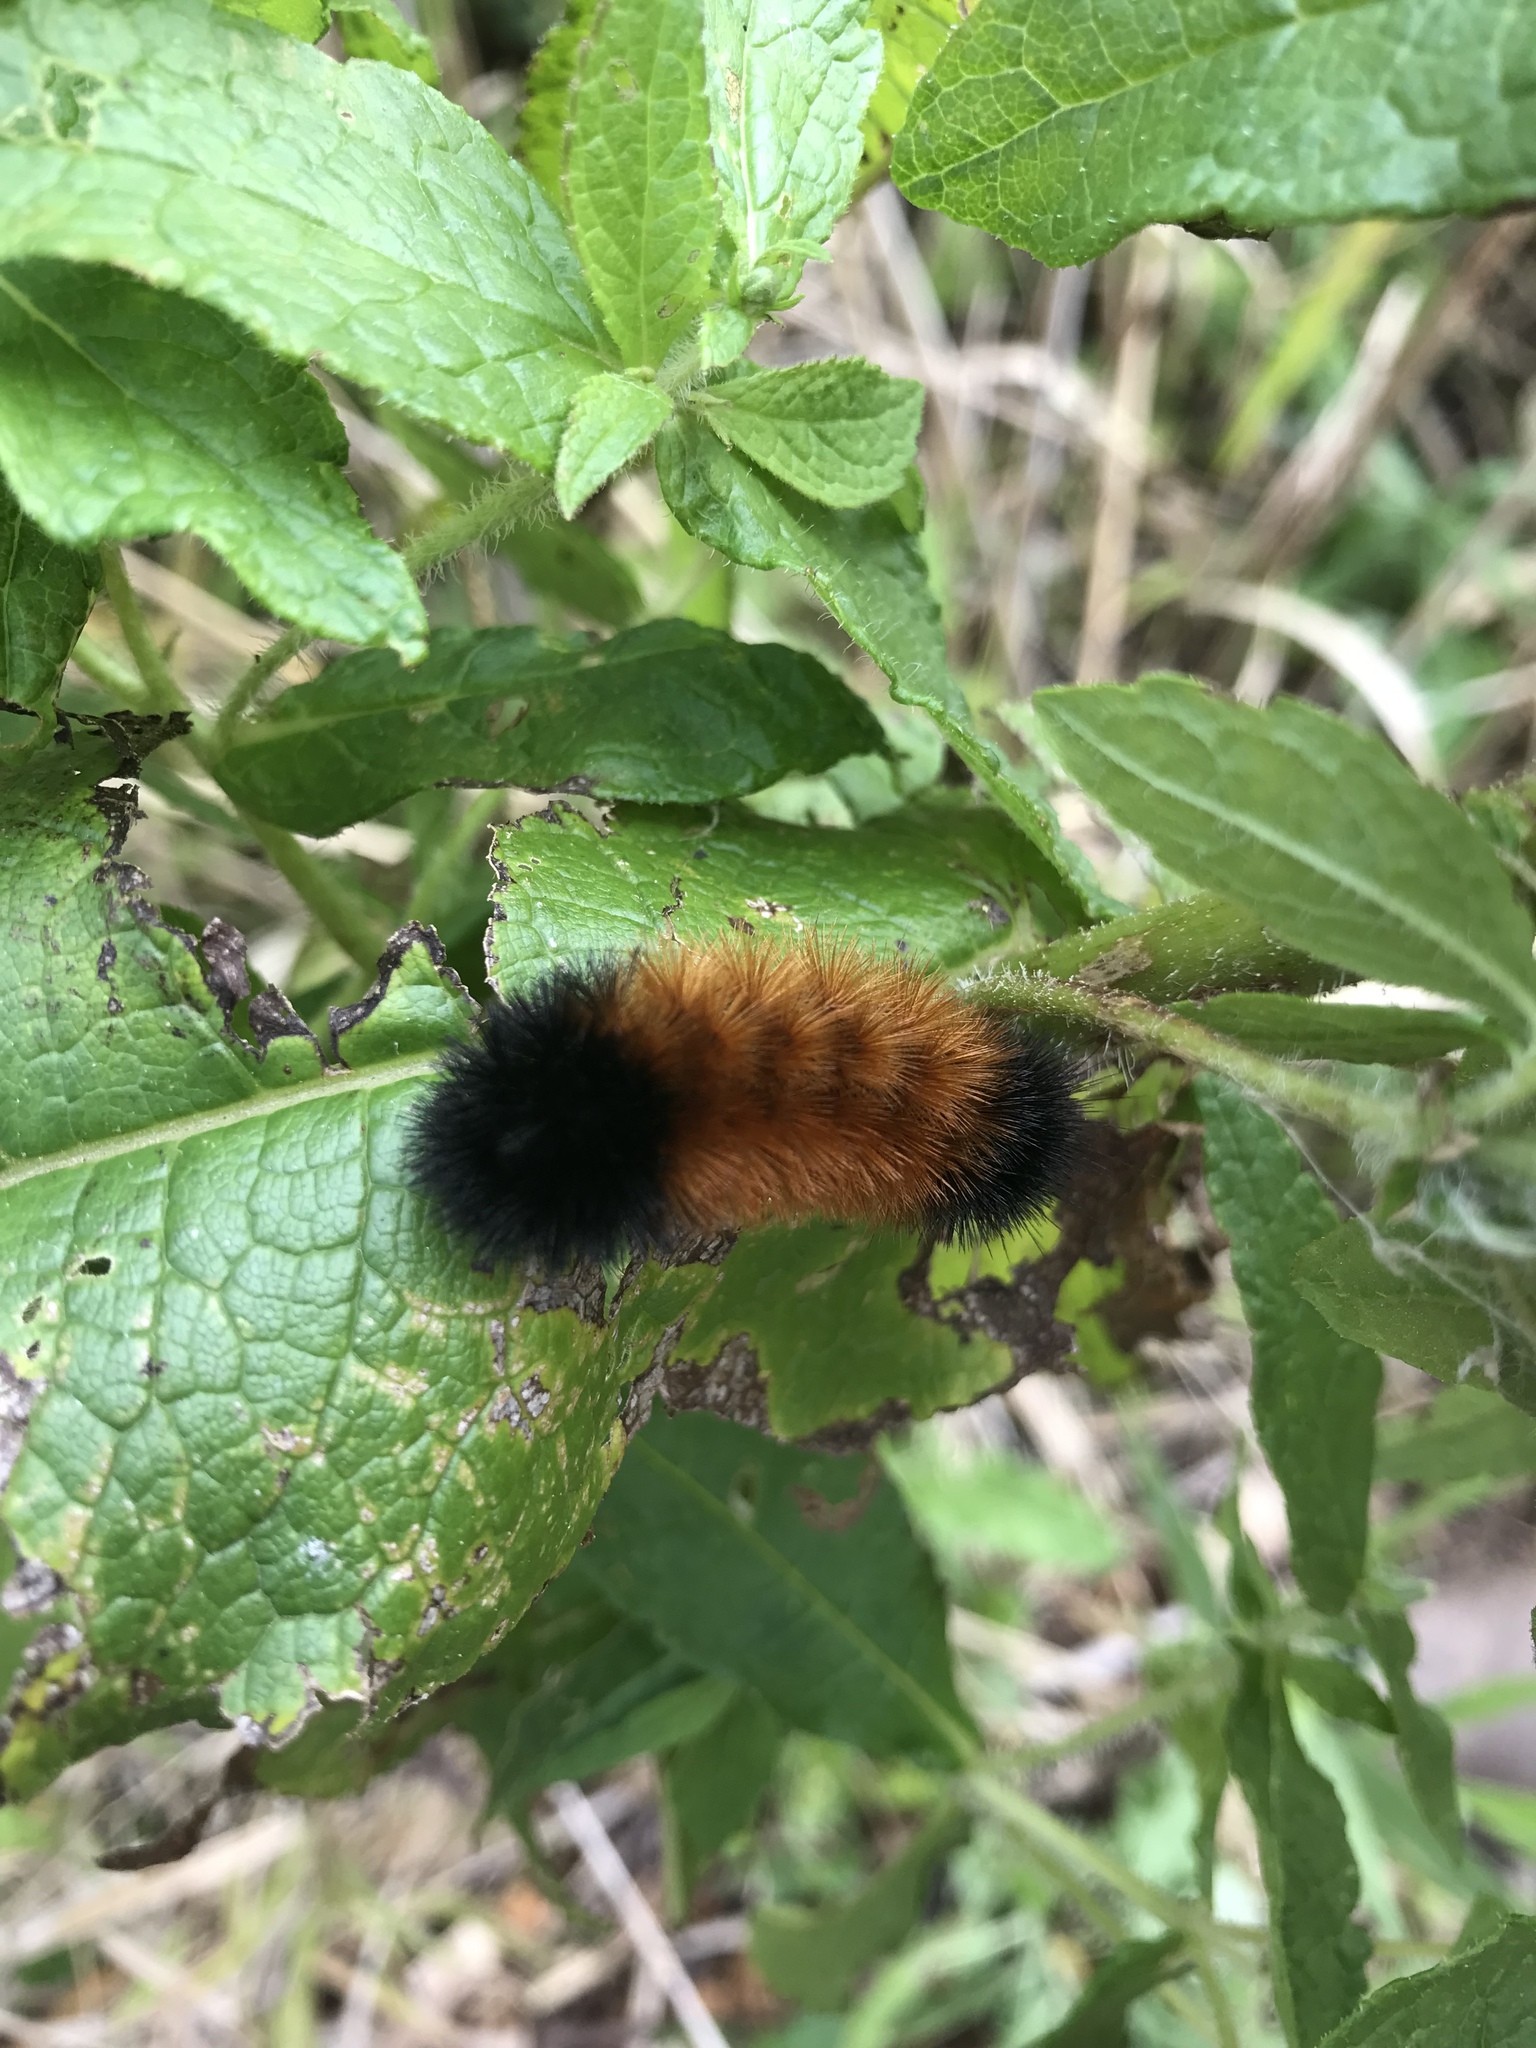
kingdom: Animalia
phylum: Arthropoda
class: Insecta
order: Lepidoptera
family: Erebidae
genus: Pyrrharctia
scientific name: Pyrrharctia isabella
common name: Isabella tiger moth
